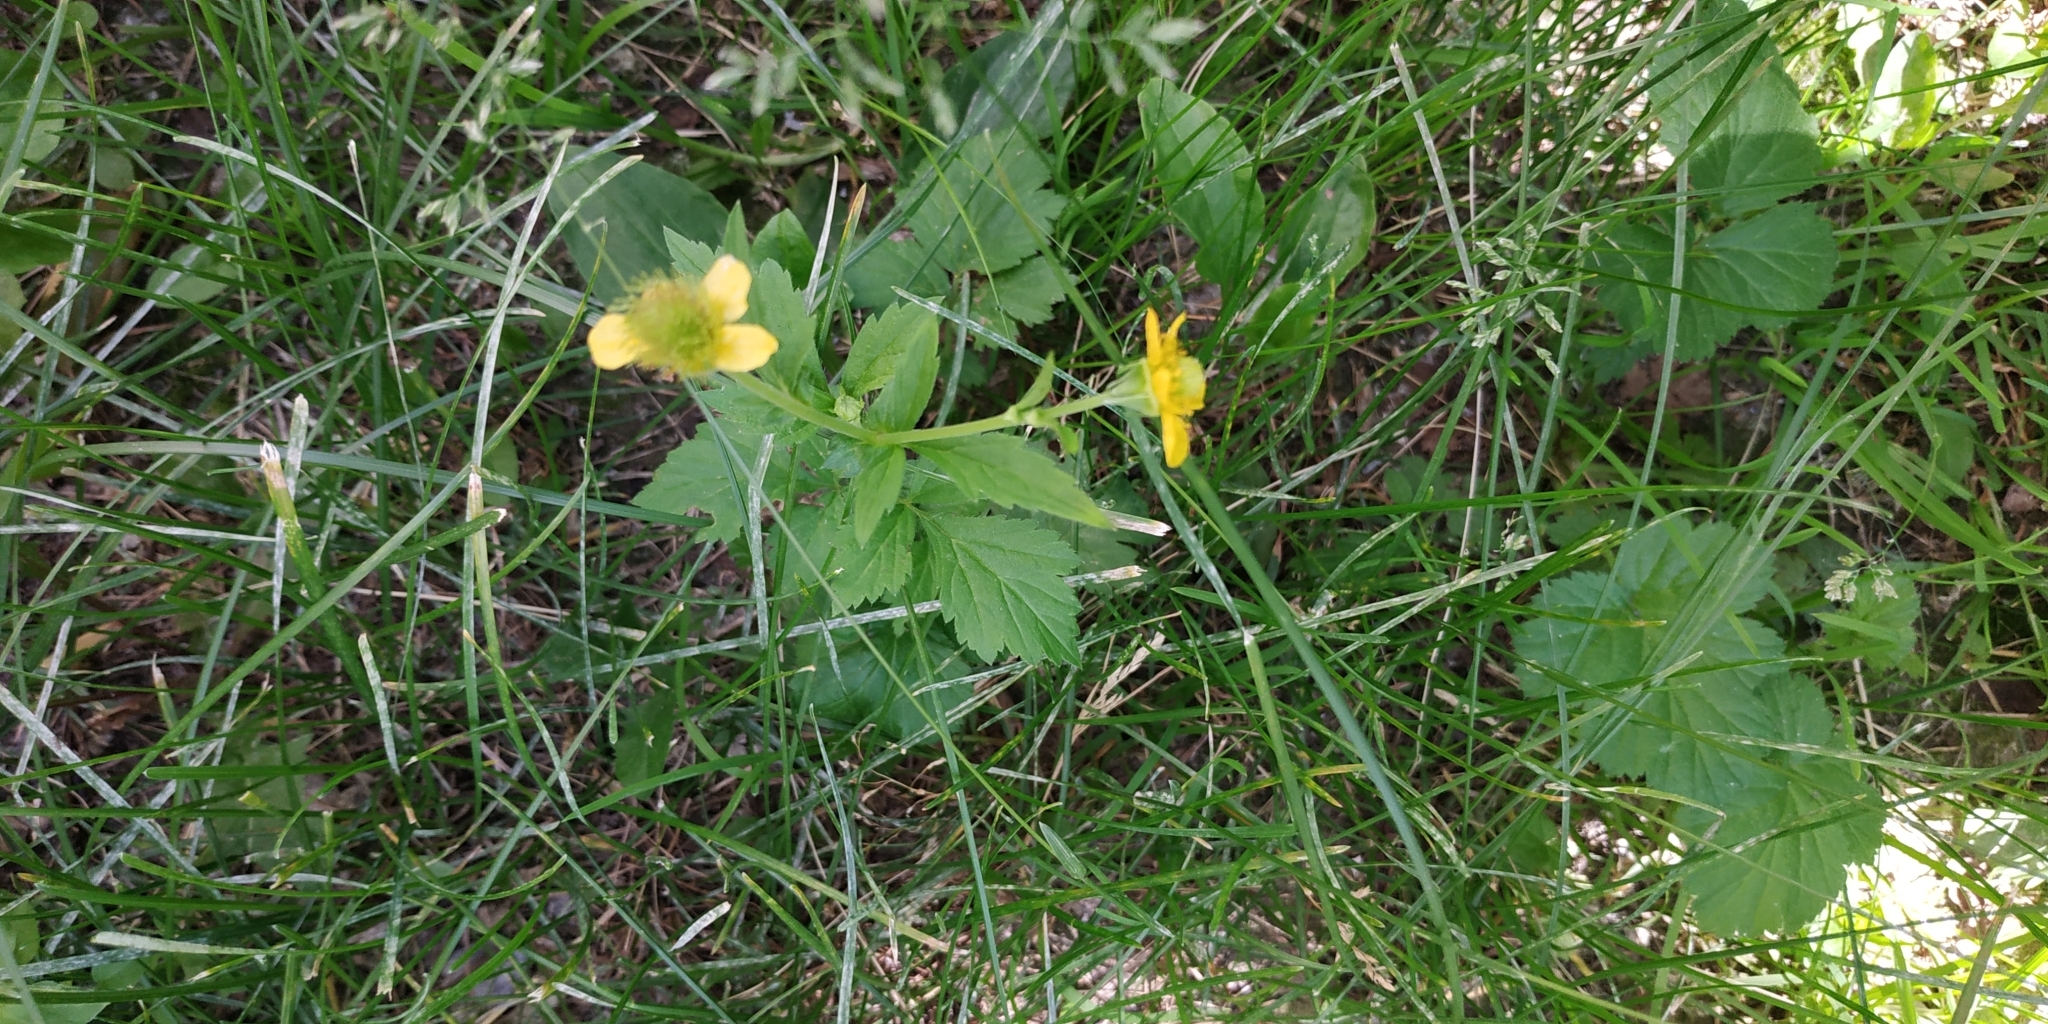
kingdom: Plantae
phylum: Tracheophyta
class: Magnoliopsida
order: Rosales
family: Rosaceae
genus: Geum
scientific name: Geum aleppicum
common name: Yellow avens
